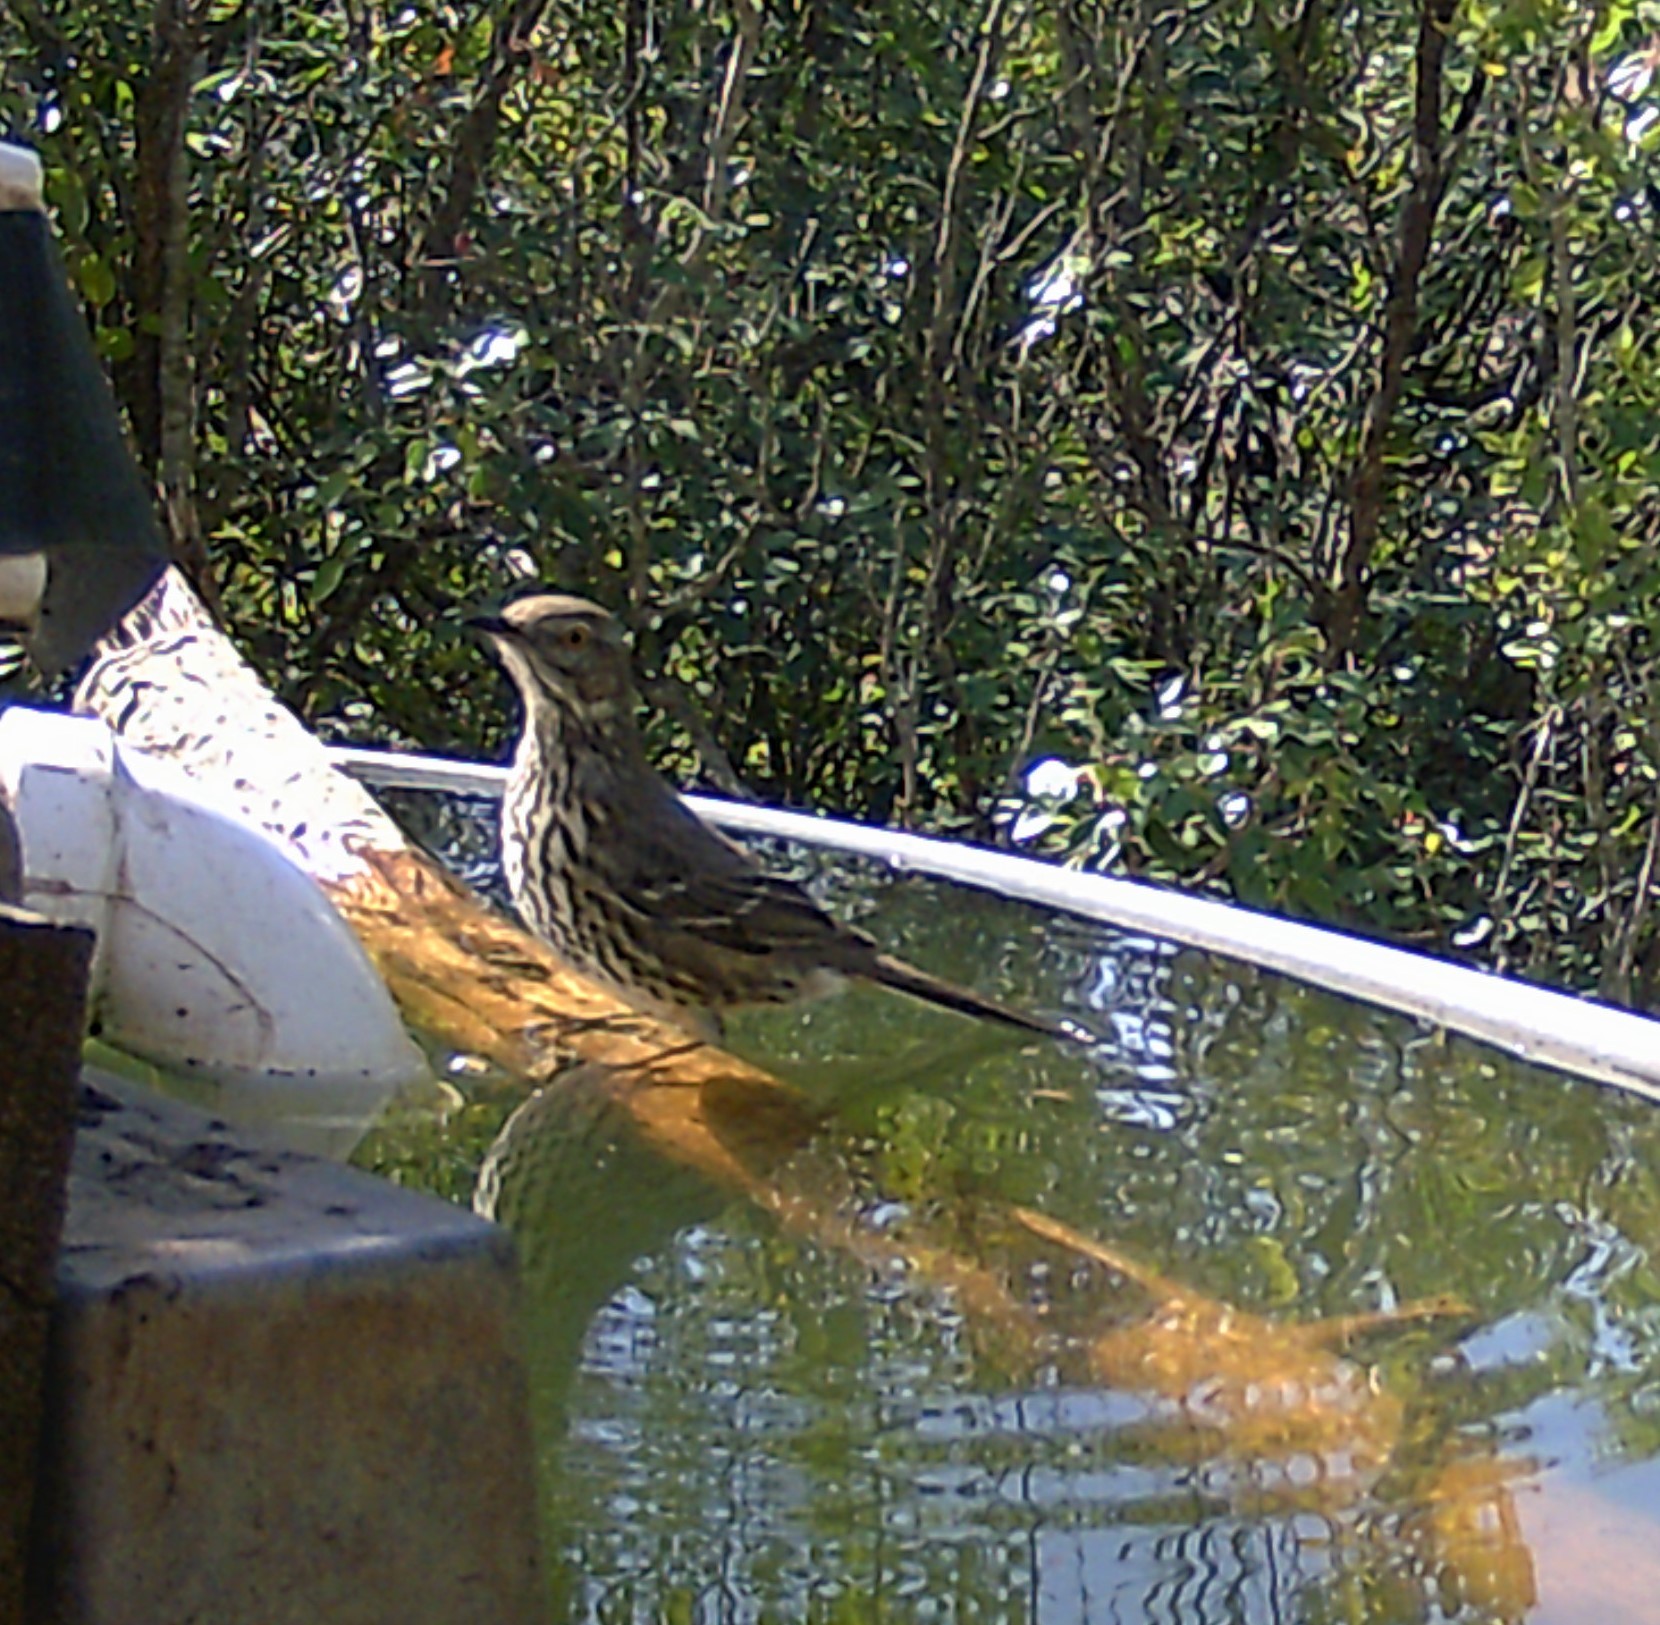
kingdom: Animalia
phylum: Chordata
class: Aves
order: Passeriformes
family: Mimidae
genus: Oreoscoptes
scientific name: Oreoscoptes montanus
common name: Sage thrasher
